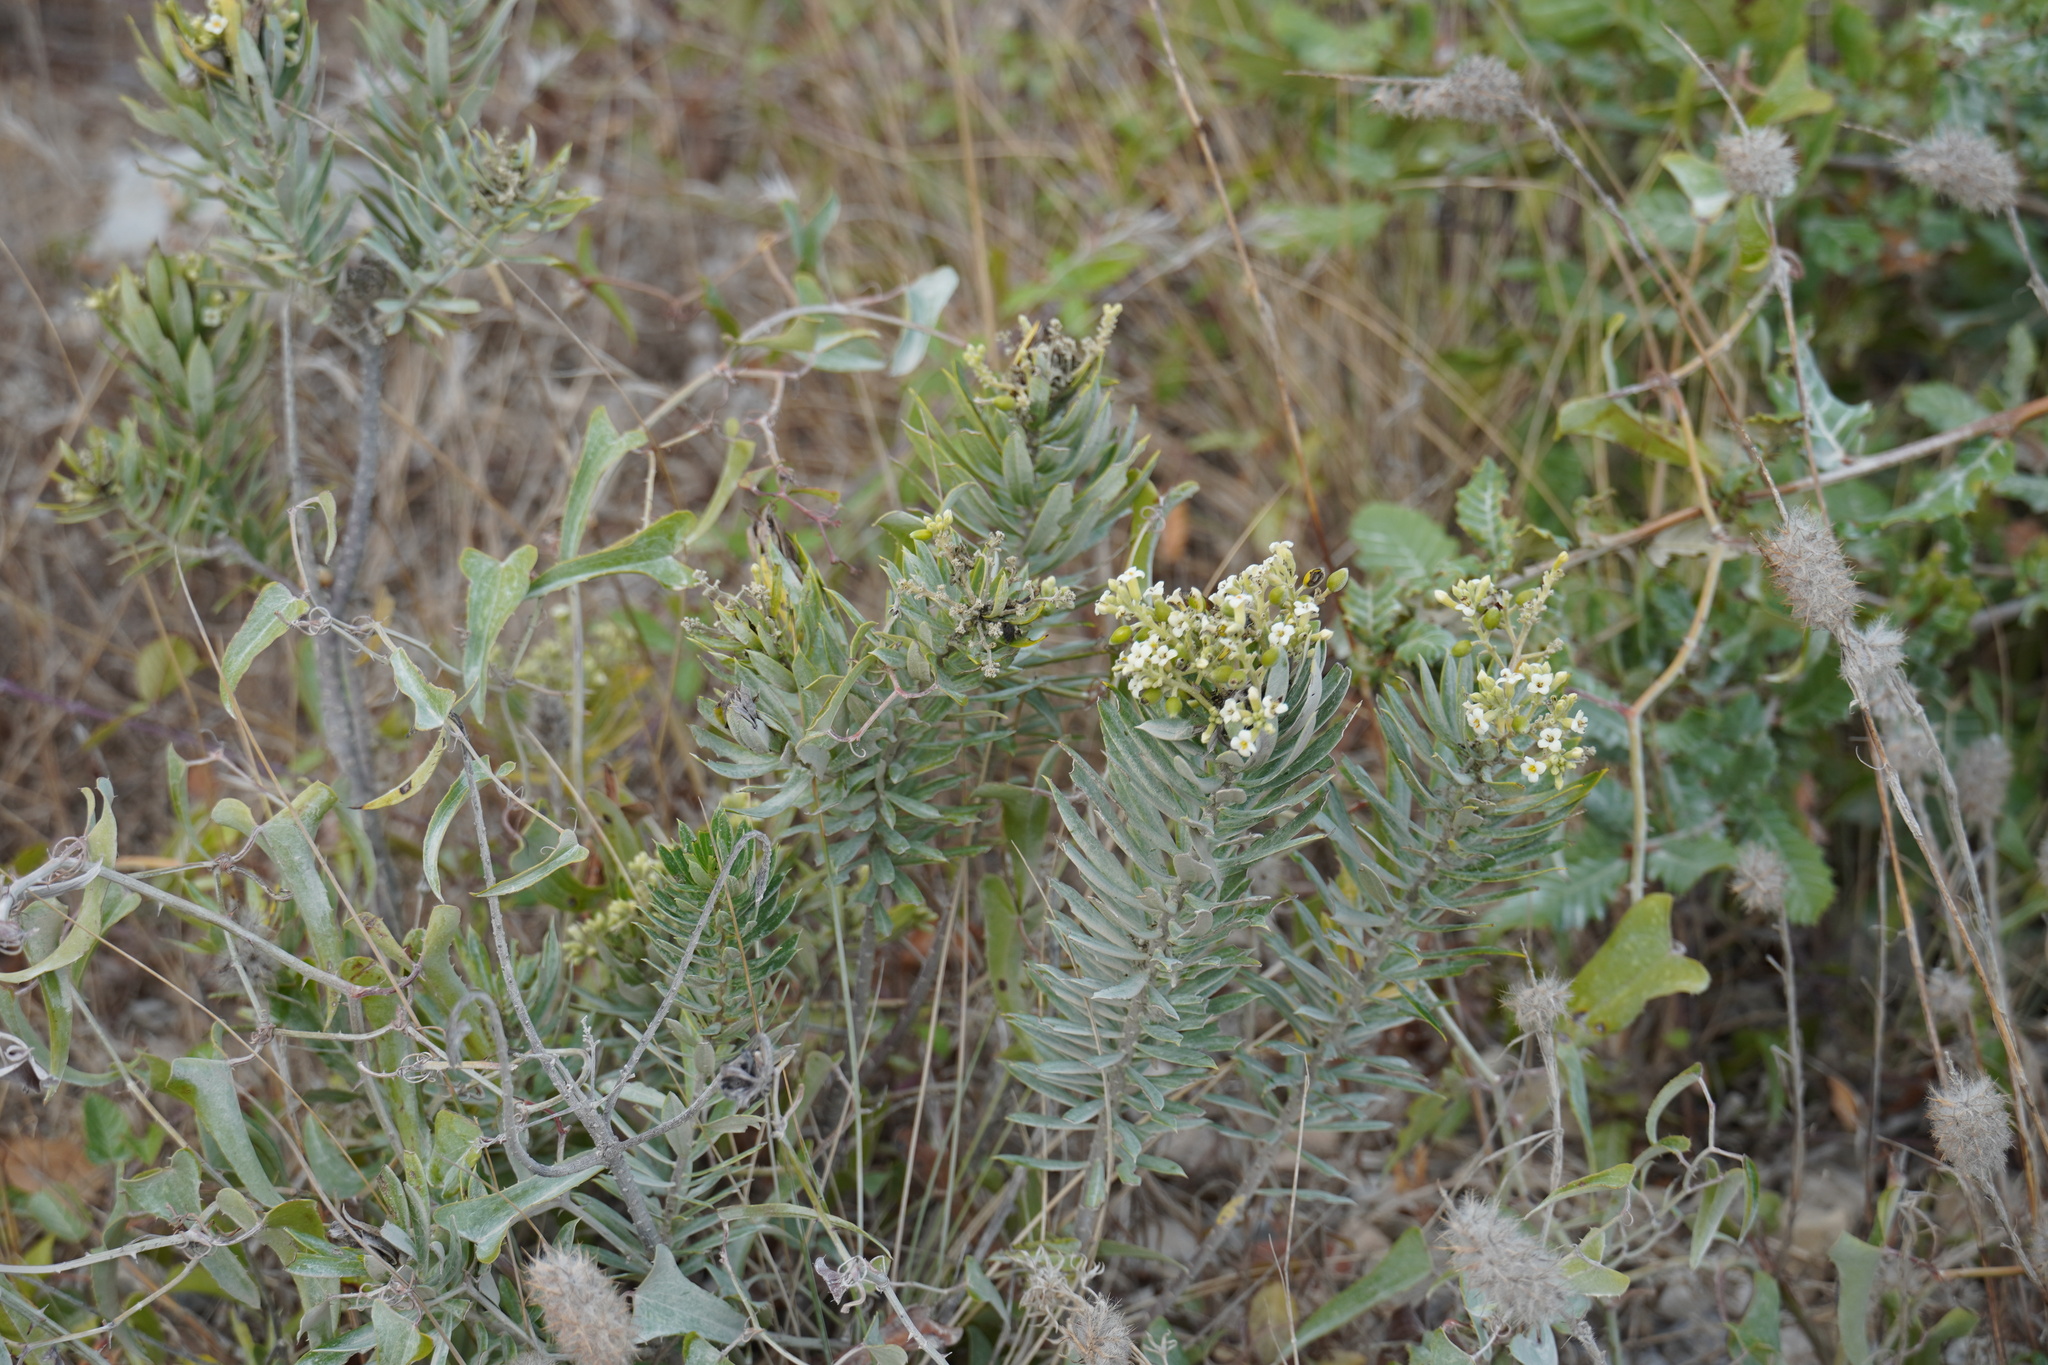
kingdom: Plantae
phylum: Tracheophyta
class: Magnoliopsida
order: Malvales
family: Thymelaeaceae
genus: Daphne
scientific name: Daphne gnidium
